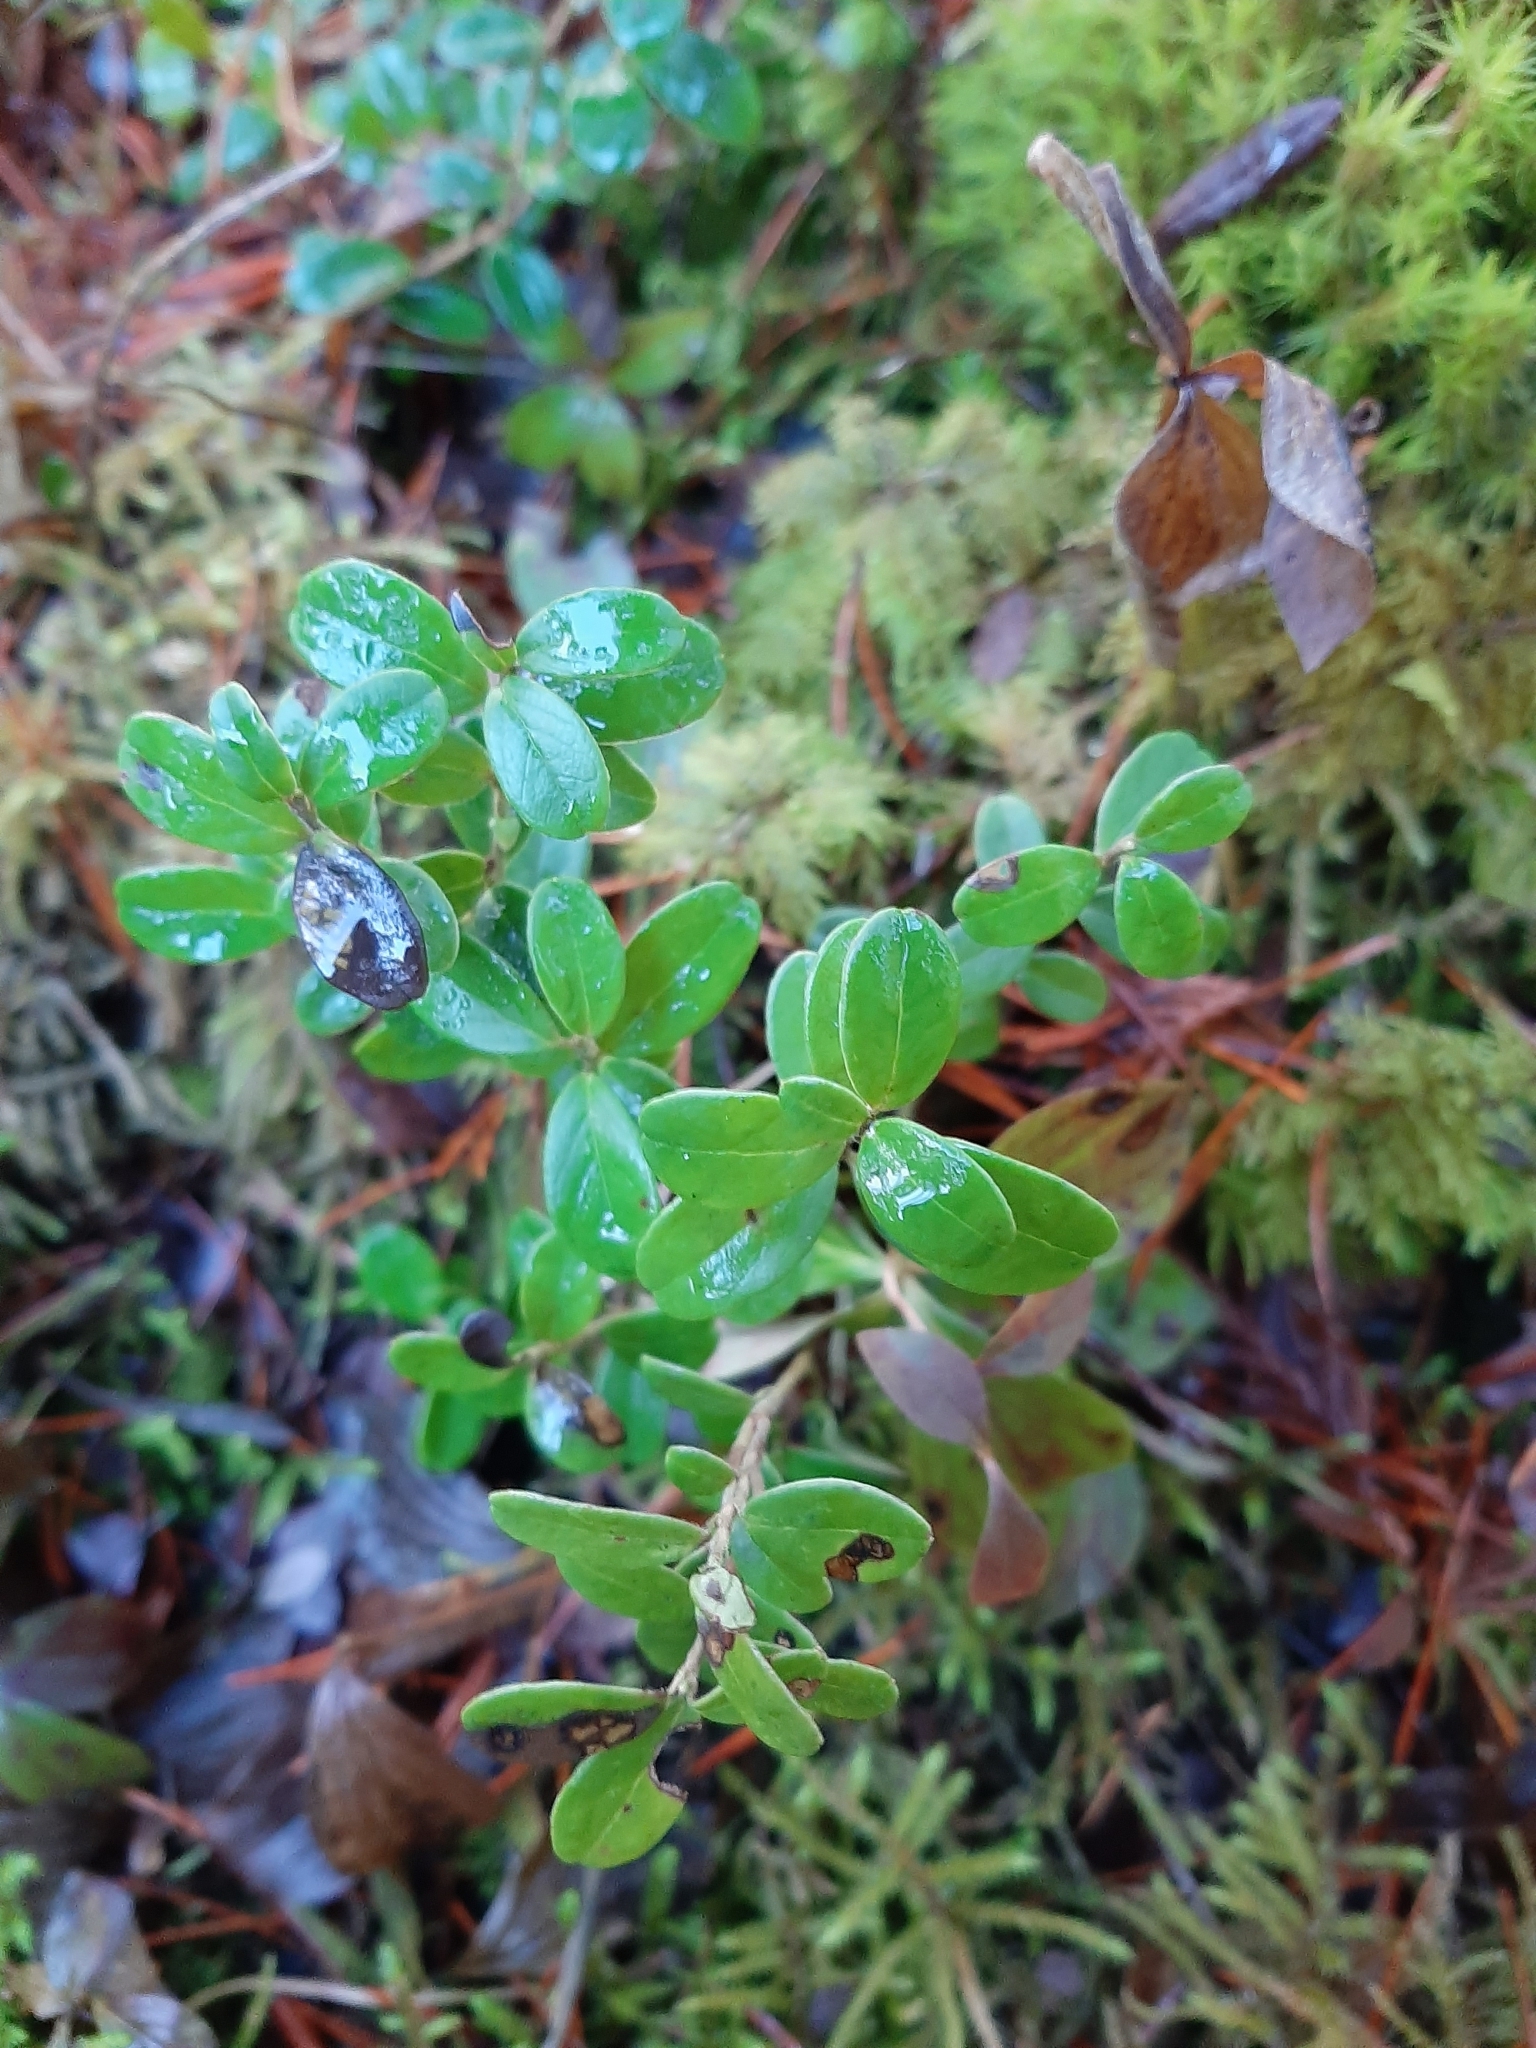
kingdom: Plantae
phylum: Tracheophyta
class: Magnoliopsida
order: Ericales
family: Ericaceae
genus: Vaccinium
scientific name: Vaccinium vitis-idaea
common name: Cowberry
